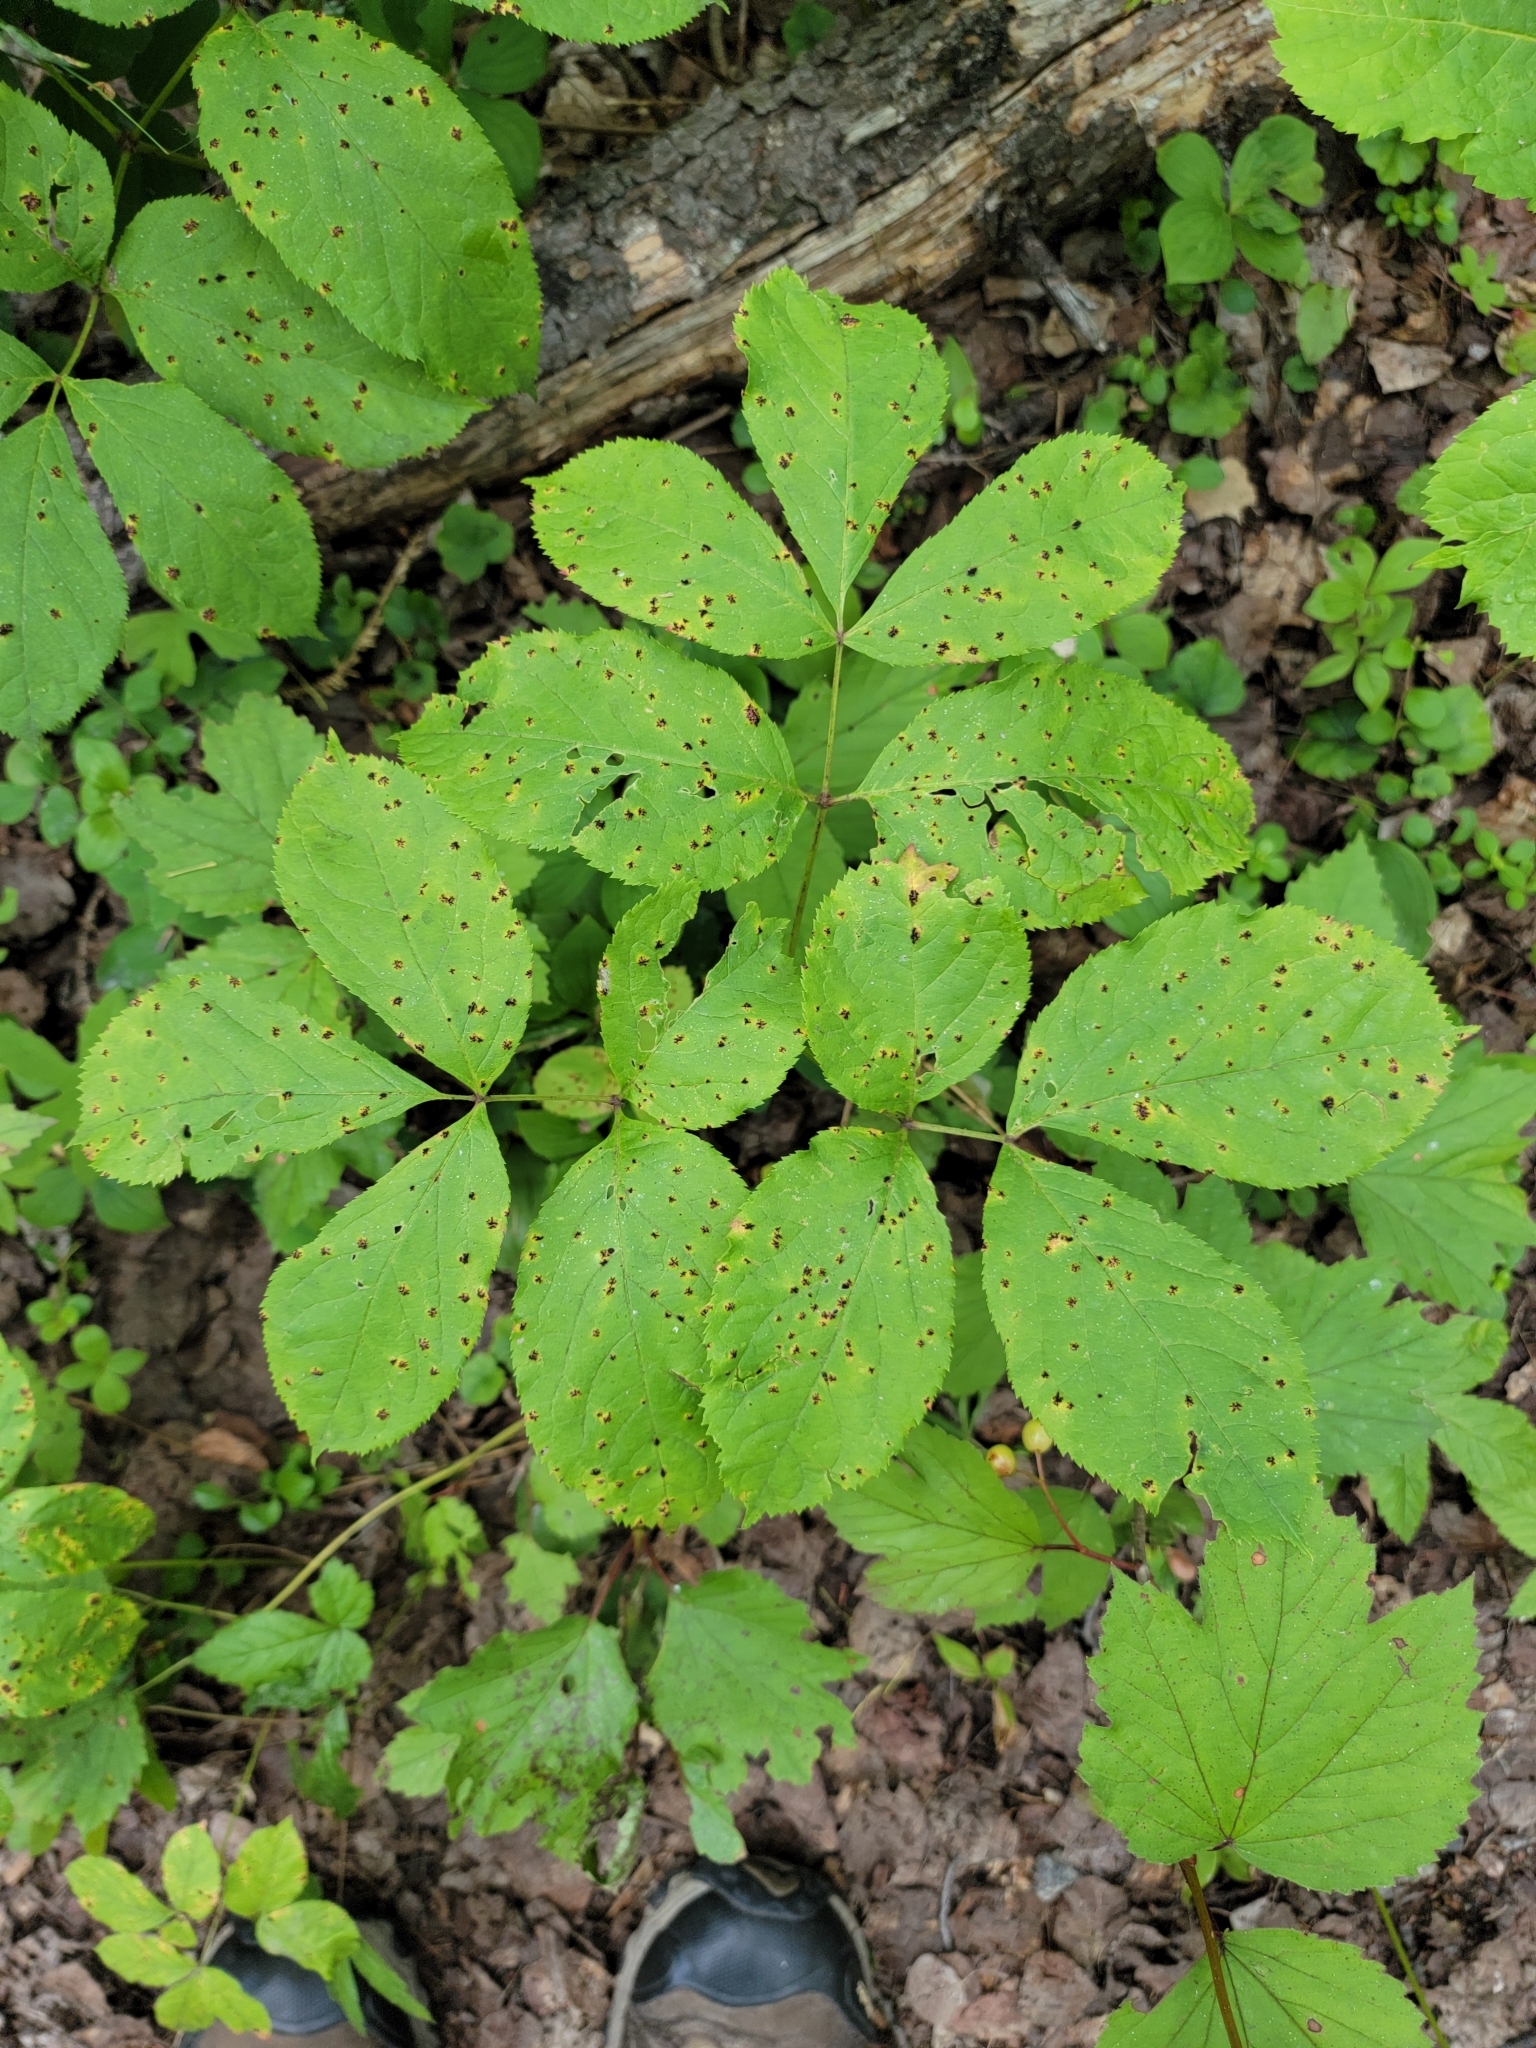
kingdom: Plantae
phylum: Tracheophyta
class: Magnoliopsida
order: Apiales
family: Araliaceae
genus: Aralia
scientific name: Aralia nudicaulis
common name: Wild sarsaparilla
